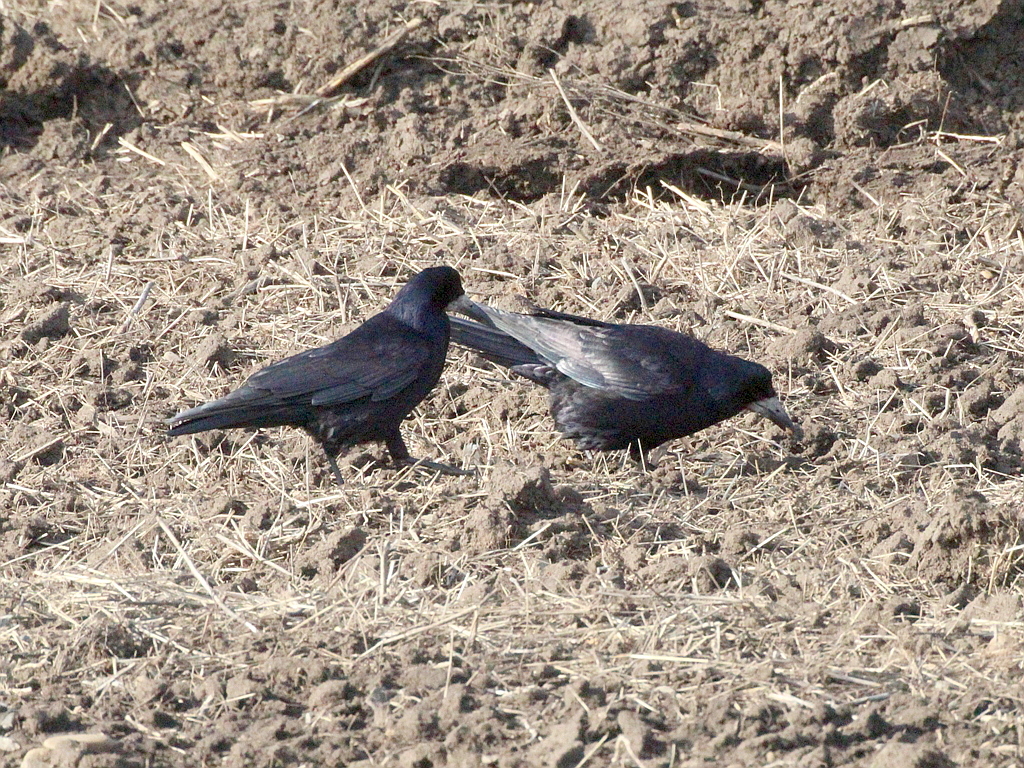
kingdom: Animalia
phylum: Chordata
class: Aves
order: Passeriformes
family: Corvidae
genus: Corvus
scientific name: Corvus frugilegus
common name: Rook
